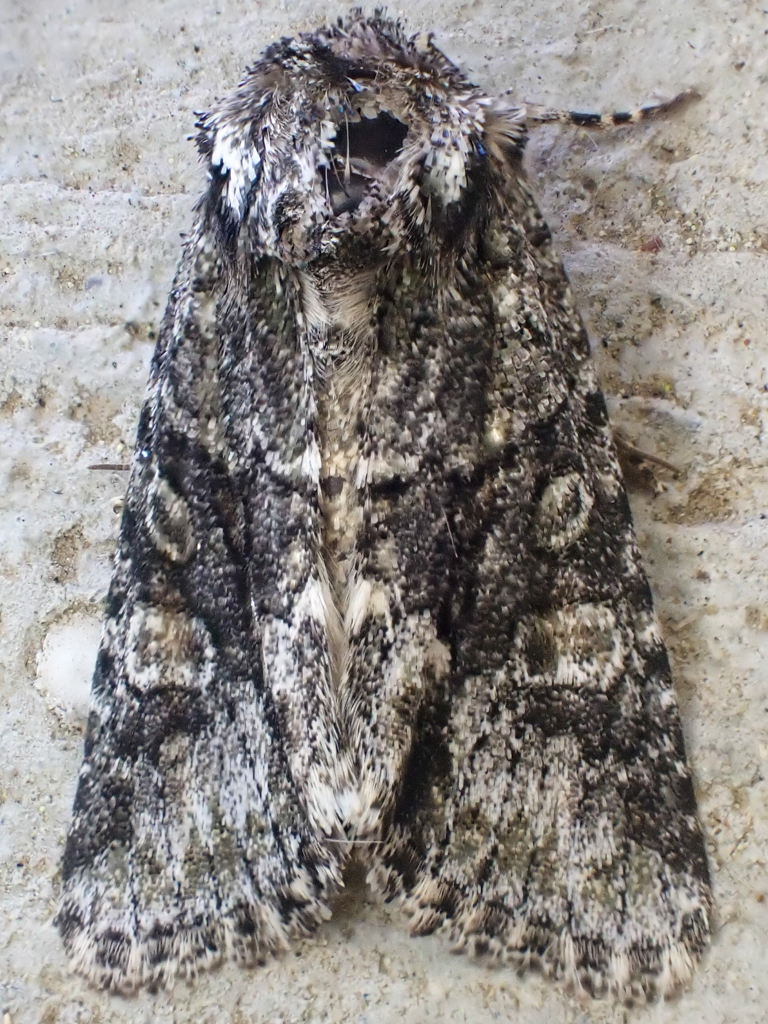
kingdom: Animalia
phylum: Arthropoda
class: Insecta
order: Lepidoptera
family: Noctuidae
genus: Lacinipolia
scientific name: Lacinipolia quadrilineata
